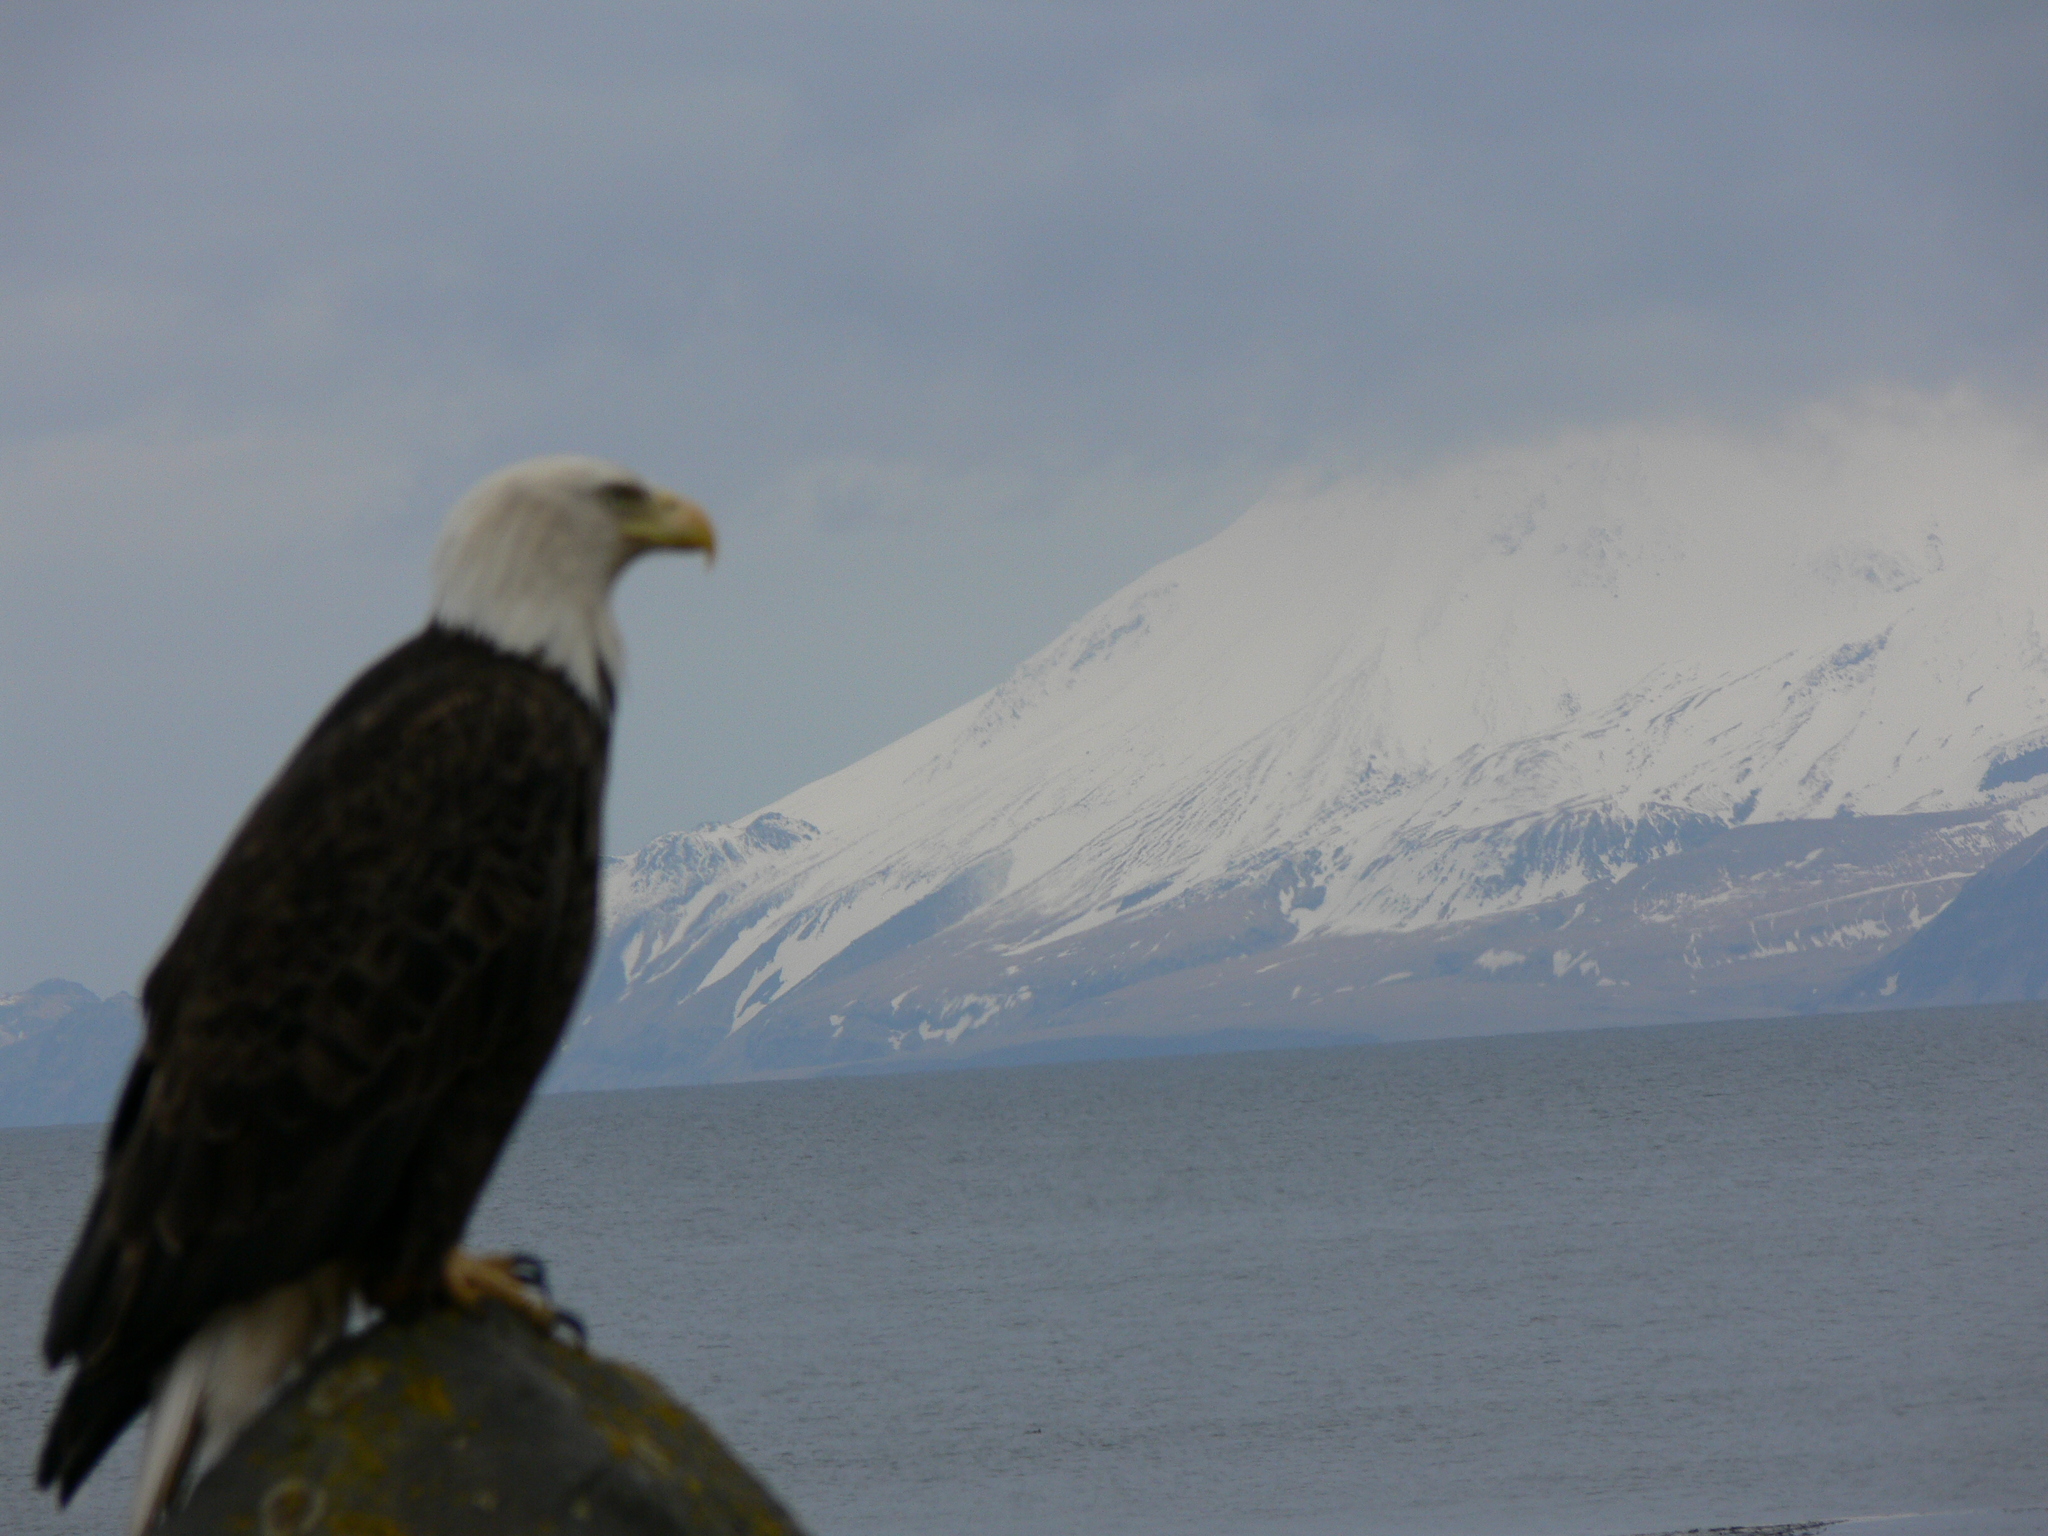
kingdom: Animalia
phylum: Chordata
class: Aves
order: Accipitriformes
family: Accipitridae
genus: Haliaeetus
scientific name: Haliaeetus leucocephalus
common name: Bald eagle
